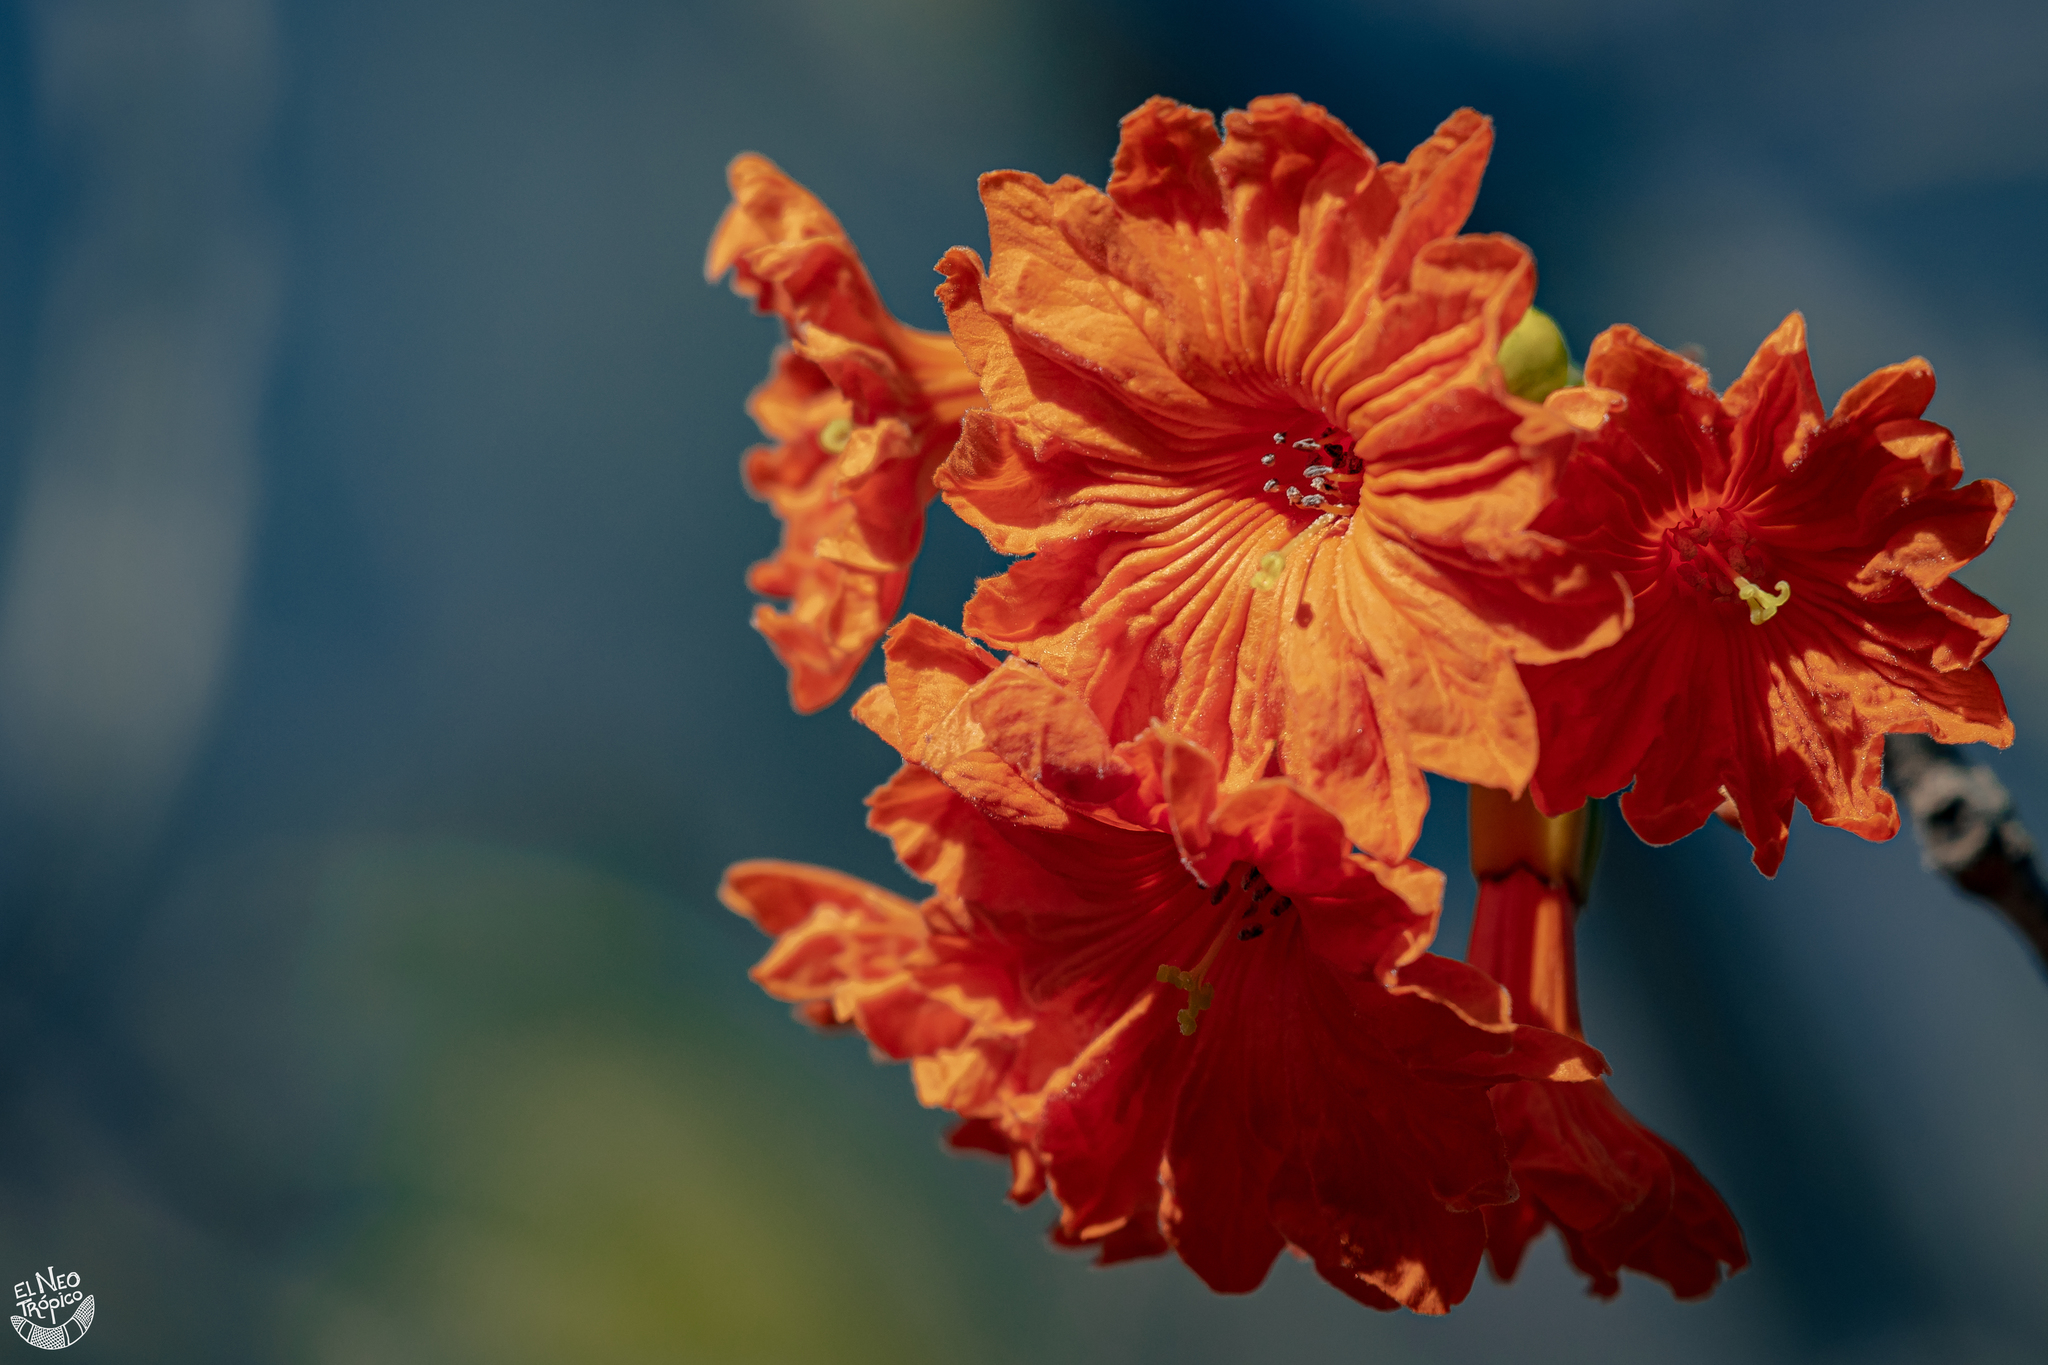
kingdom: Plantae
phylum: Tracheophyta
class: Magnoliopsida
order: Boraginales
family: Cordiaceae
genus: Cordia
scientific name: Cordia dodecandra
